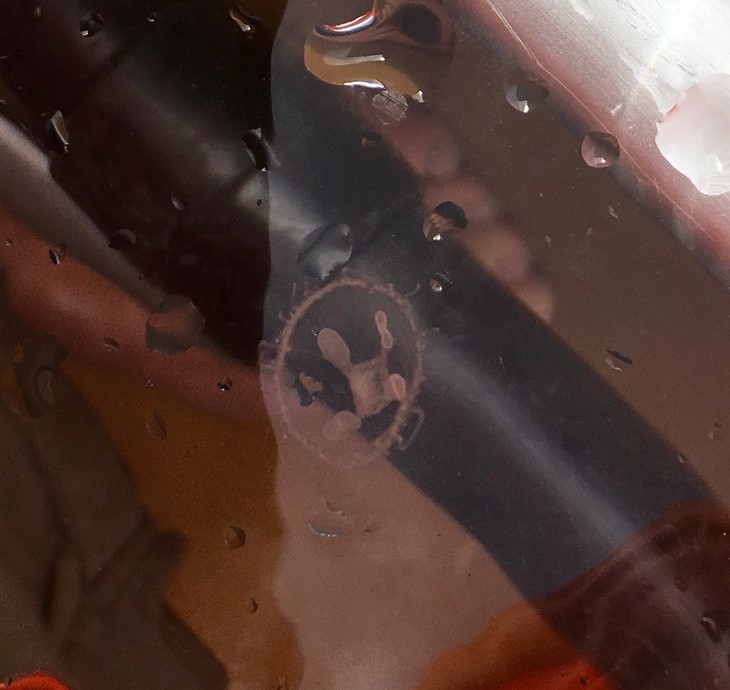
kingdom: Animalia
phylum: Cnidaria
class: Hydrozoa
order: Limnomedusae
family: Olindiidae
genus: Craspedacusta
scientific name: Craspedacusta sowerbii
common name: Freshwater jellyfish
